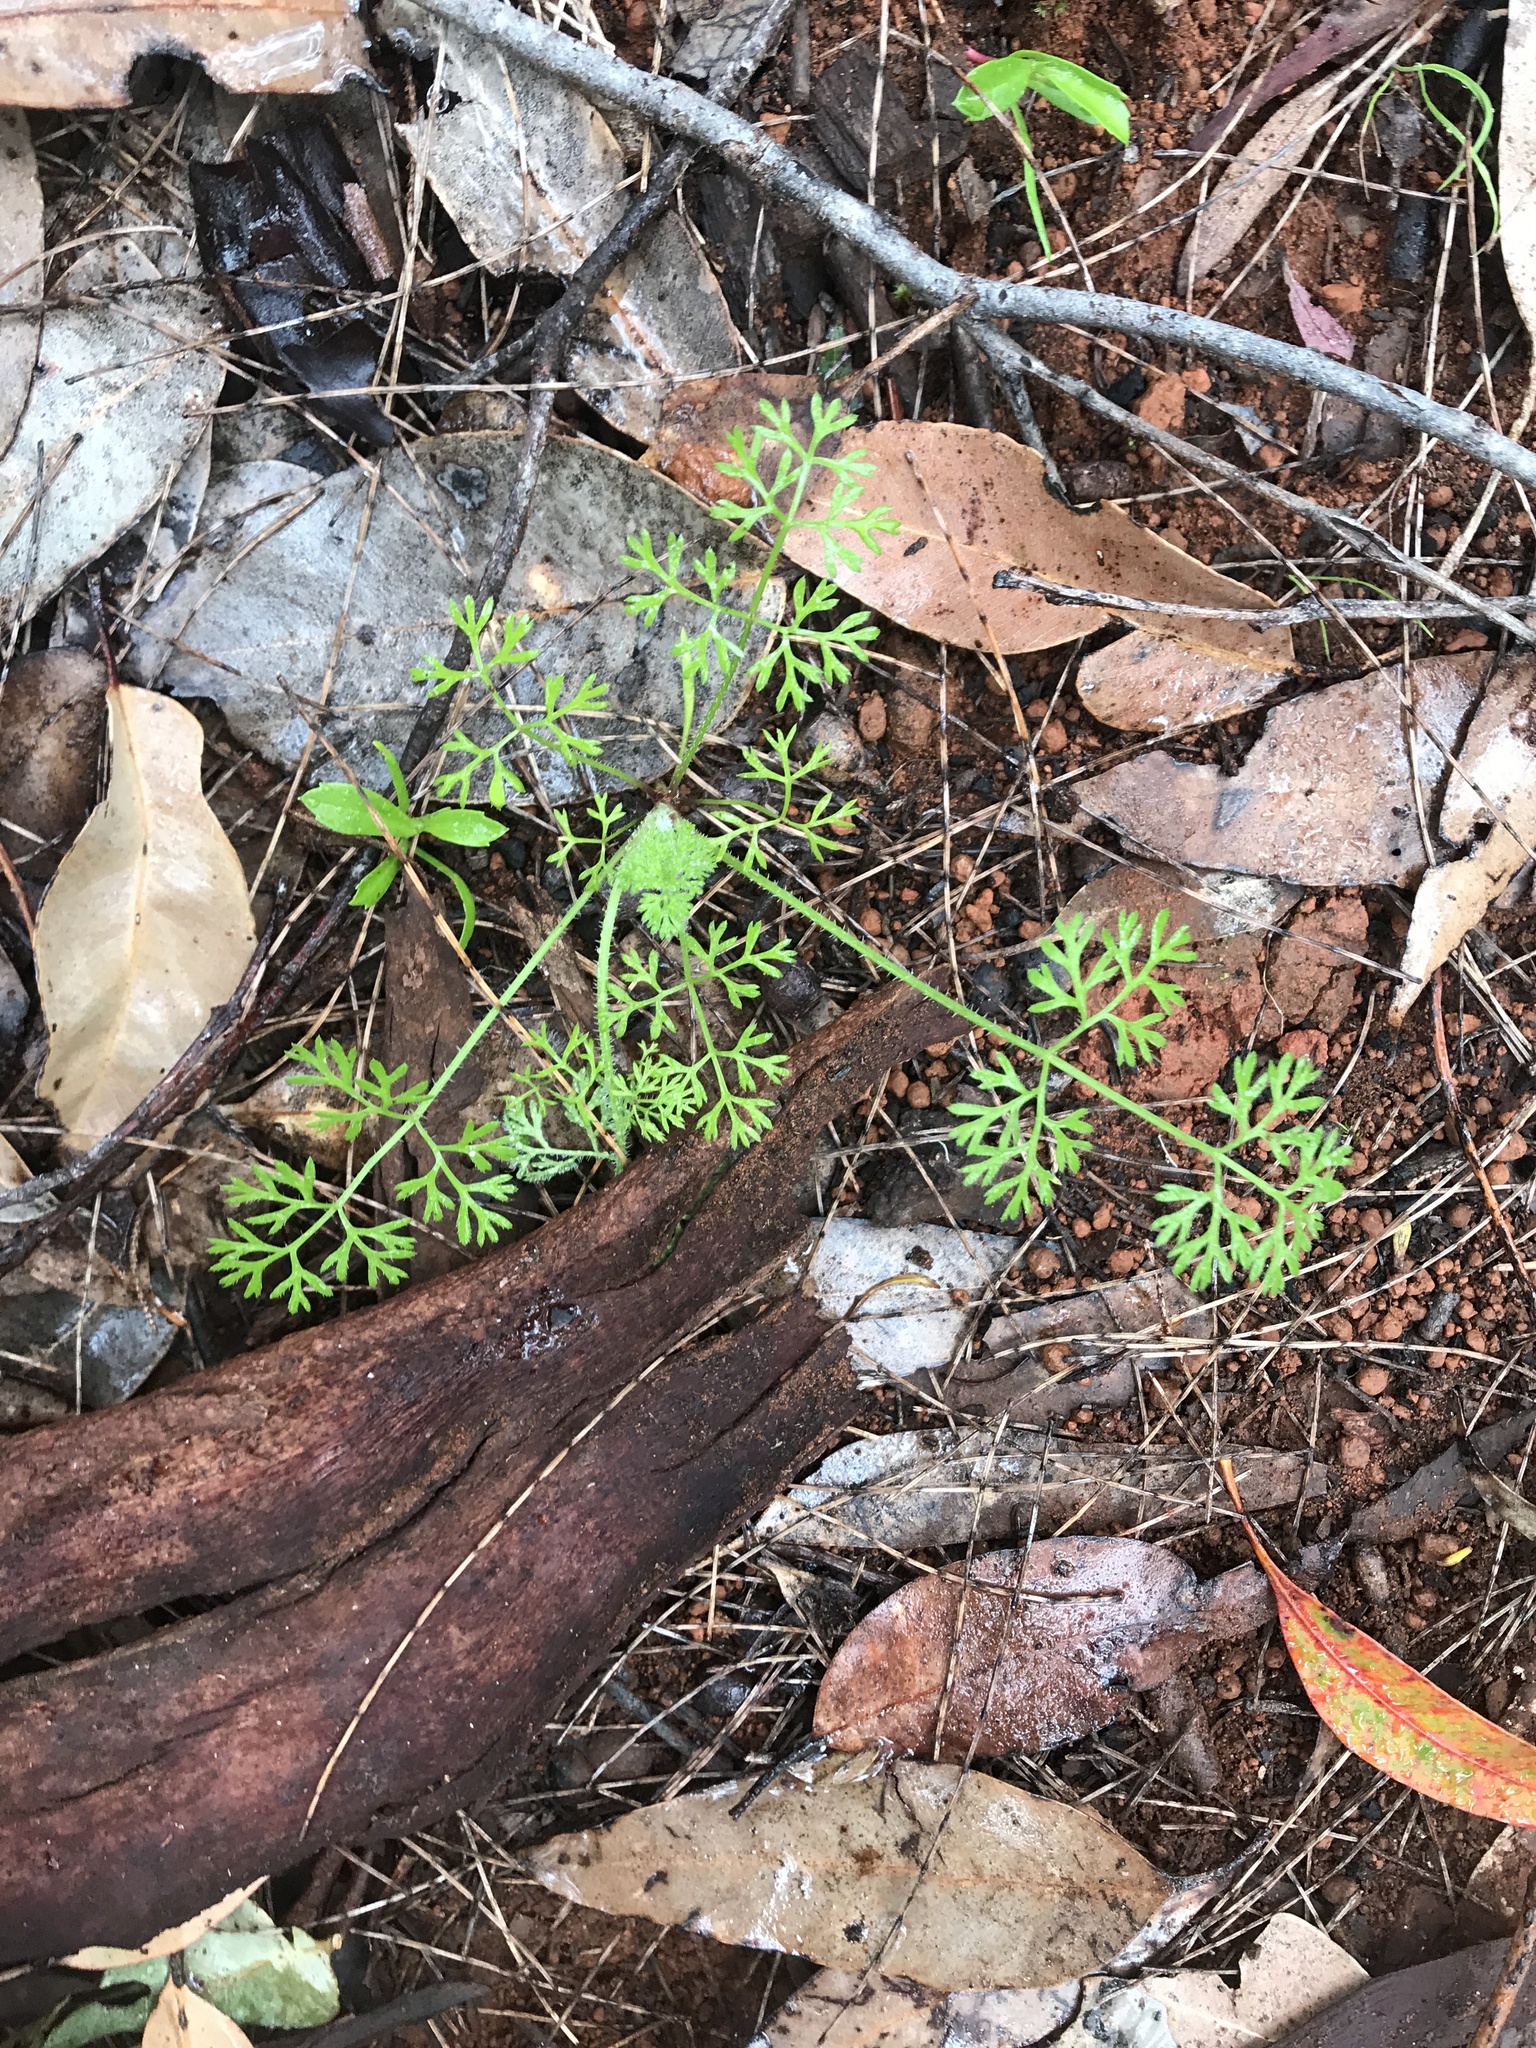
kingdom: Plantae
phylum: Tracheophyta
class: Magnoliopsida
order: Apiales
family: Apiaceae
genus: Daucus
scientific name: Daucus glochidiatus
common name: Australian carrot
